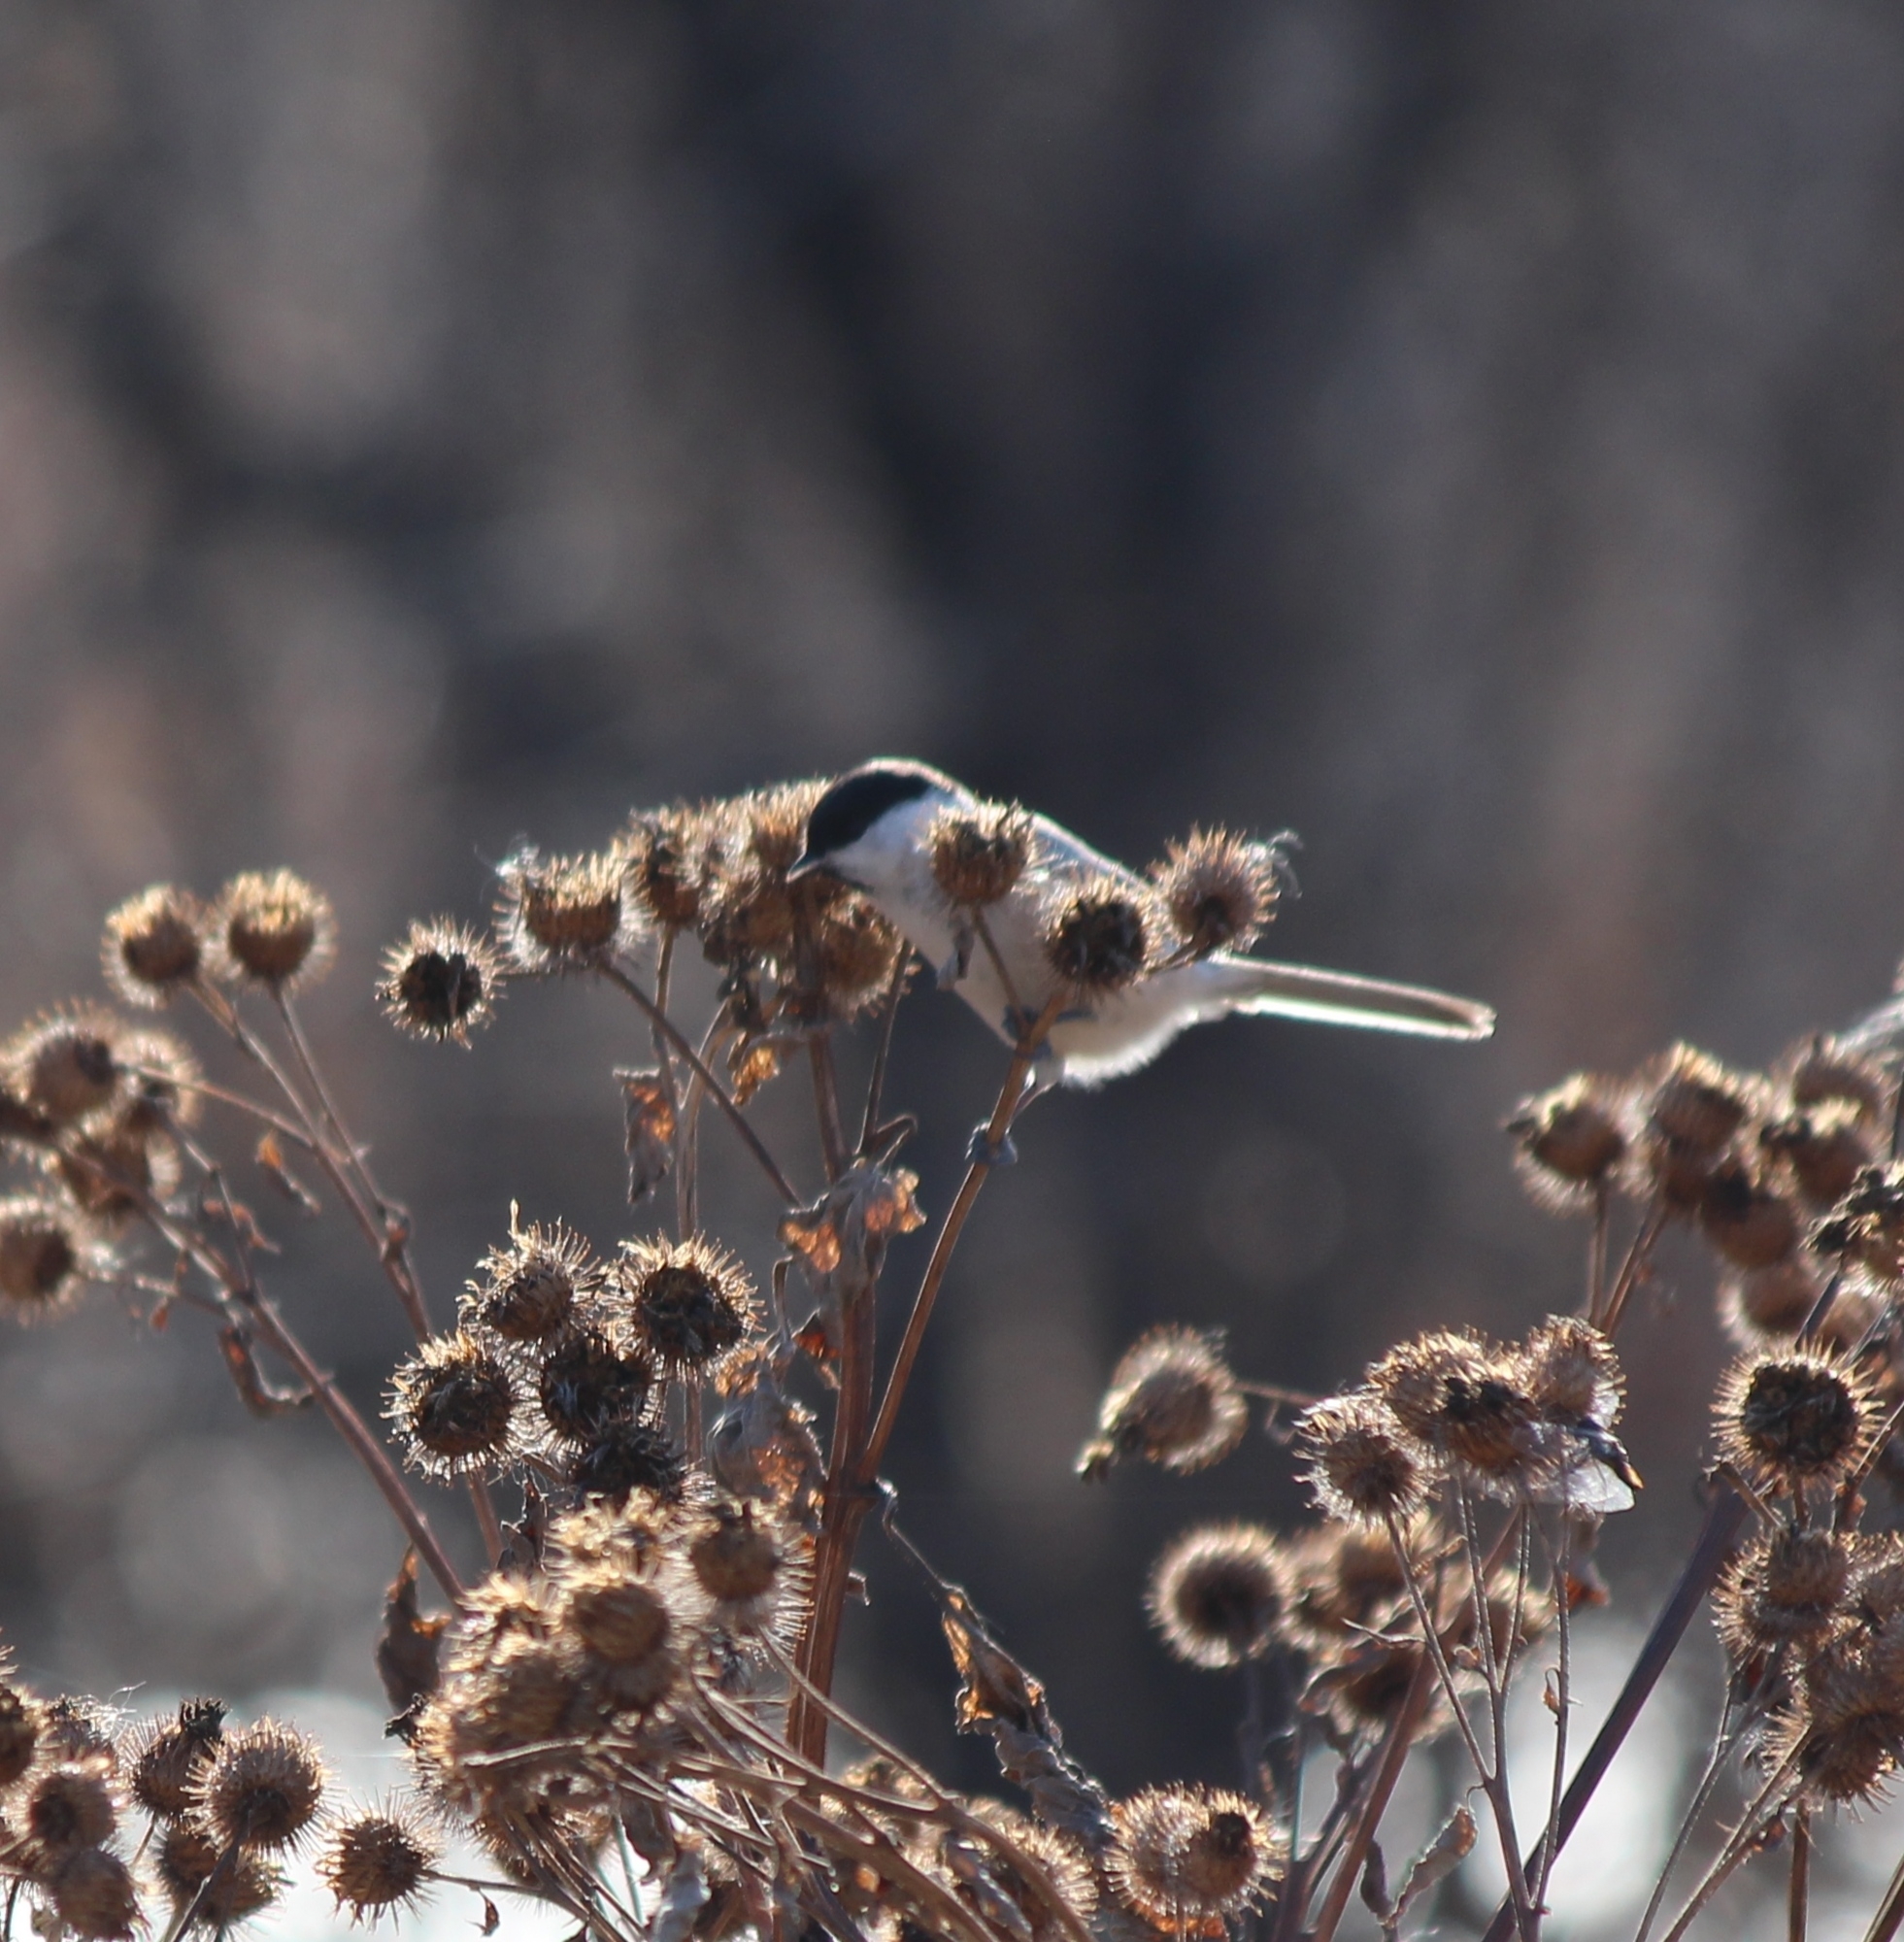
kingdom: Animalia
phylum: Chordata
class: Aves
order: Passeriformes
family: Paridae
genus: Poecile
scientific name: Poecile palustris
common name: Marsh tit
